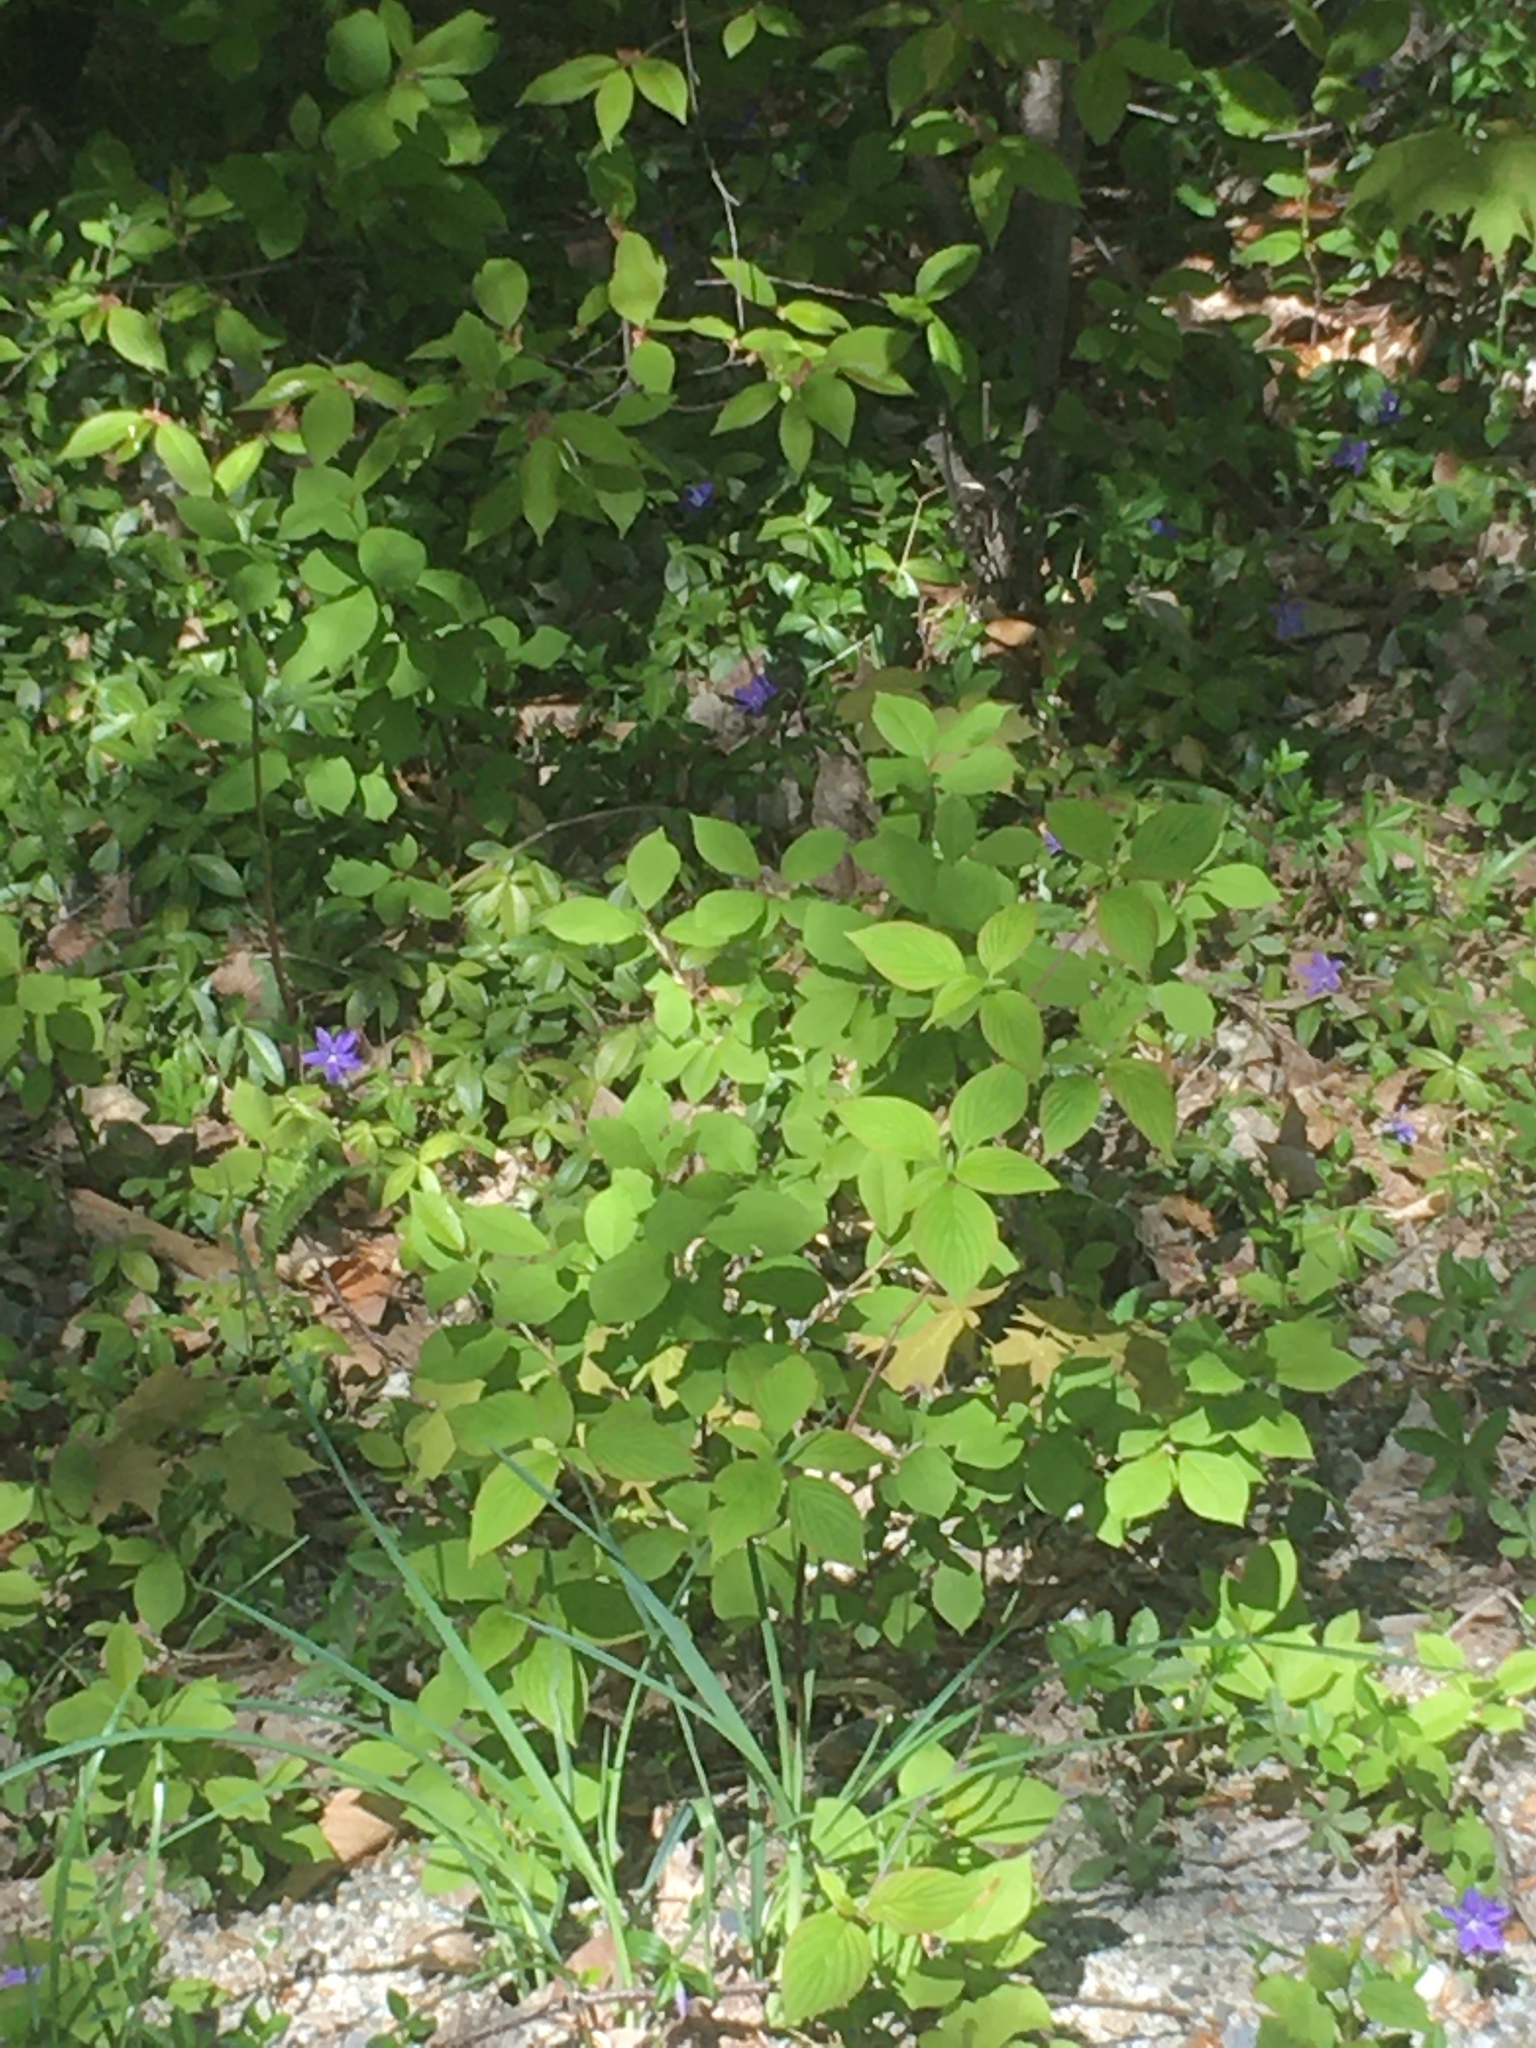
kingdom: Plantae
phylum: Tracheophyta
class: Magnoliopsida
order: Gentianales
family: Apocynaceae
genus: Vinca
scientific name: Vinca minor
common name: Lesser periwinkle
